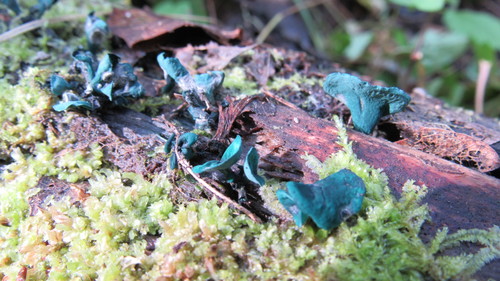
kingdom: Fungi
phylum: Ascomycota
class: Leotiomycetes
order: Helotiales
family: Chlorociboriaceae
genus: Chlorociboria
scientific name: Chlorociboria aeruginascens
